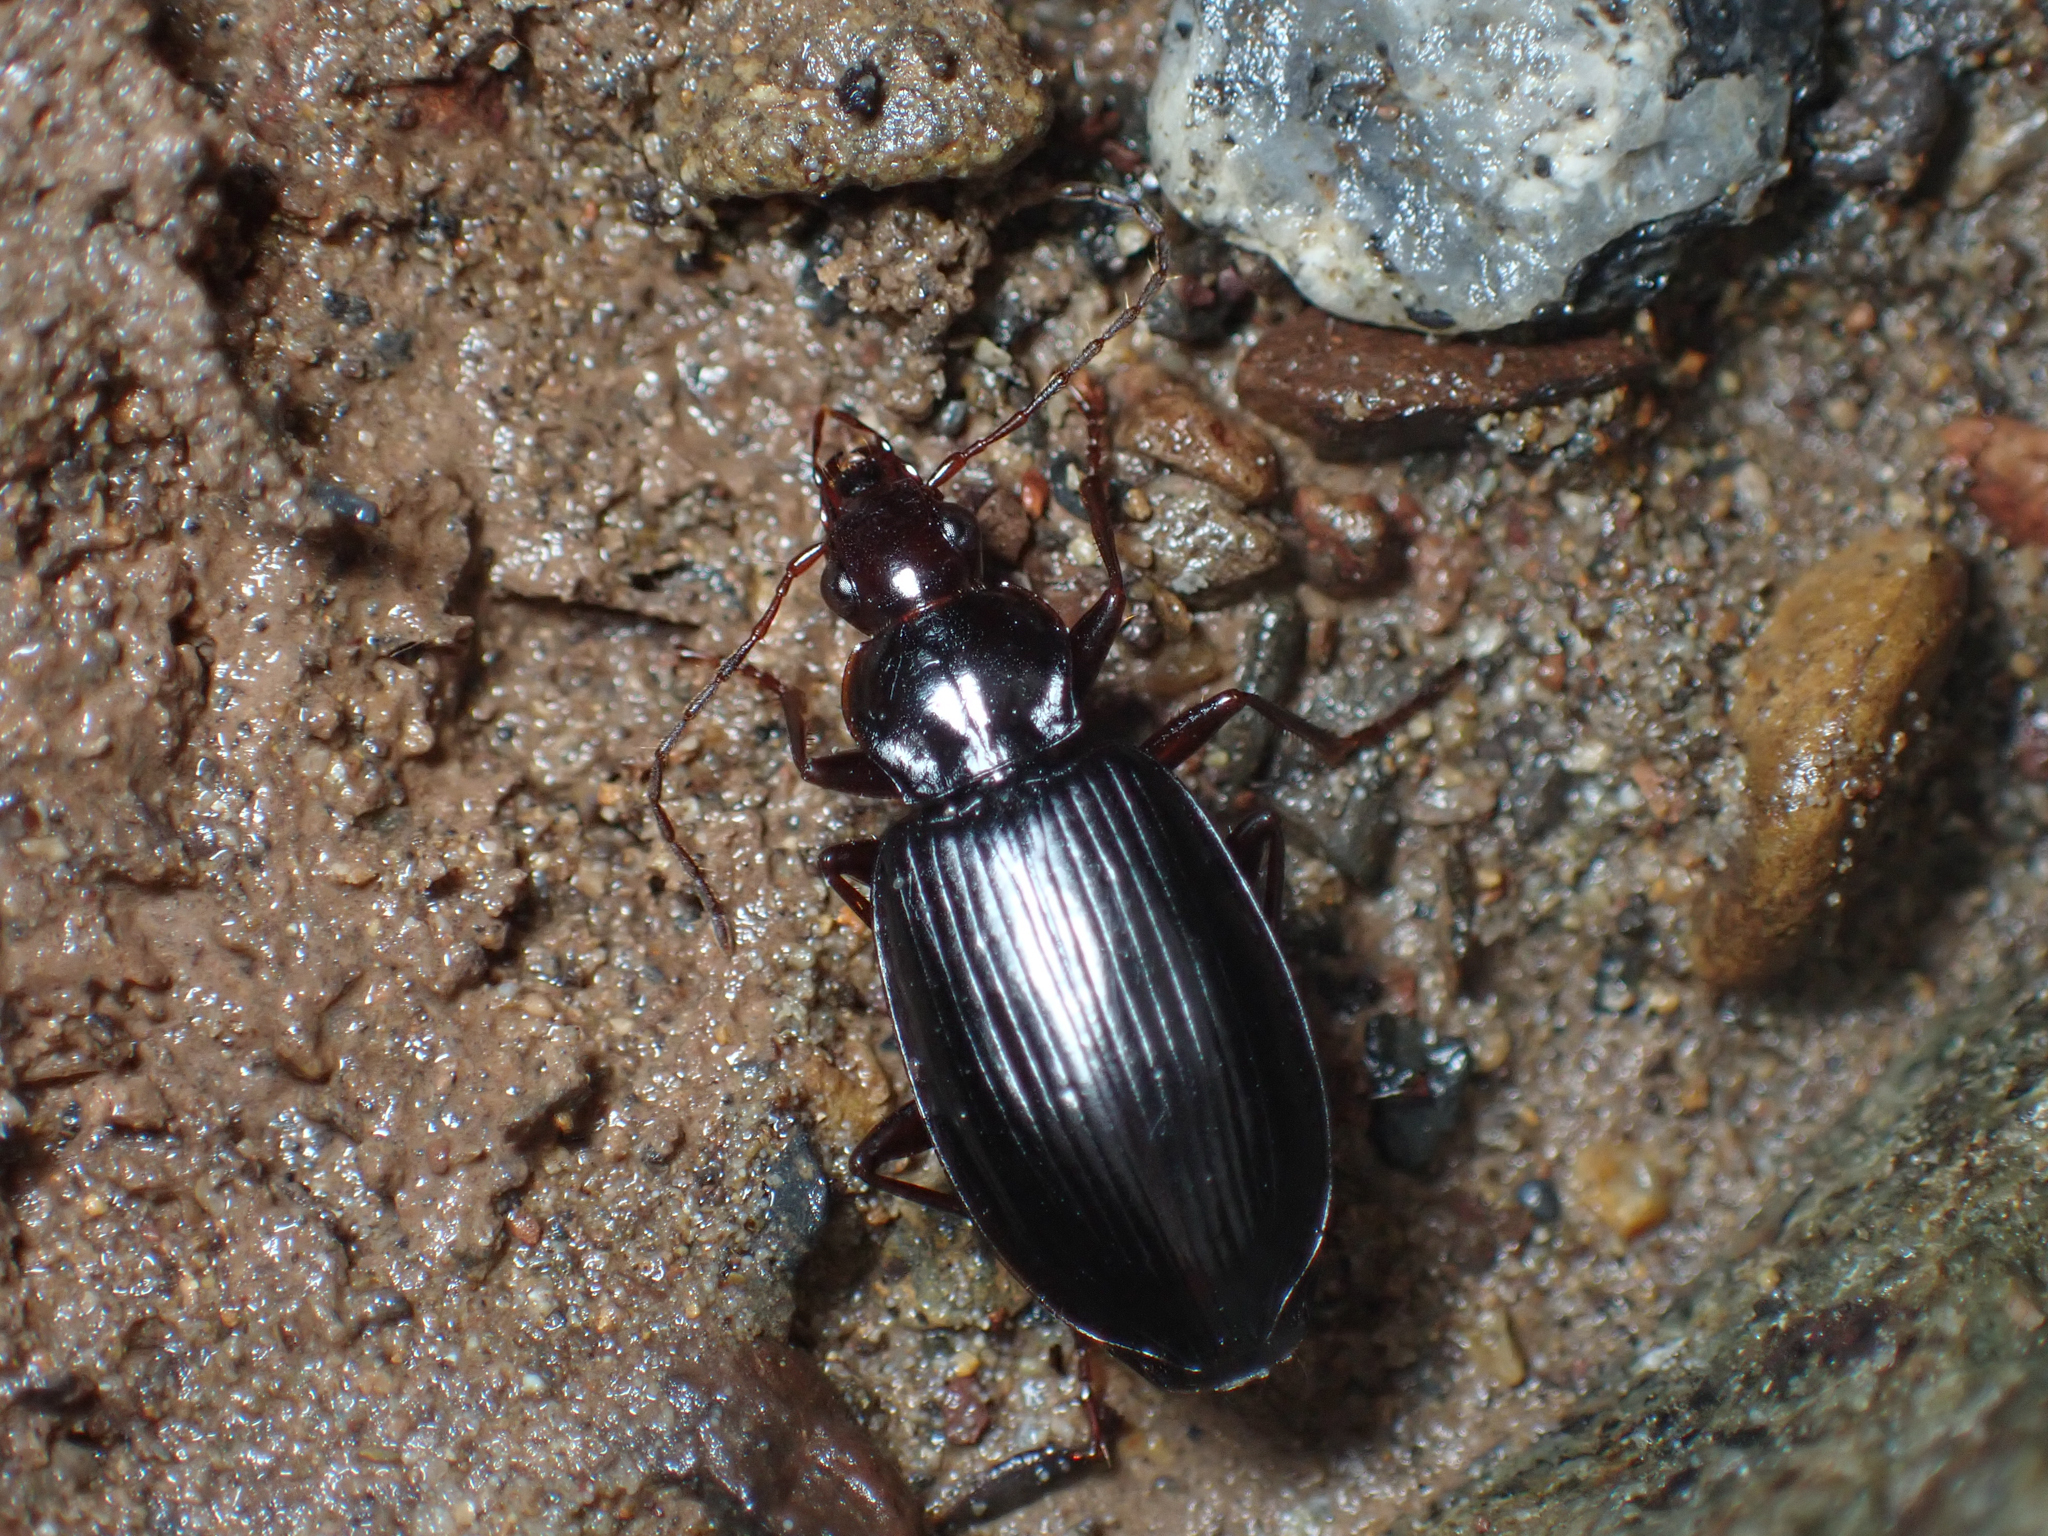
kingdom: Animalia
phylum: Arthropoda
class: Insecta
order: Coleoptera
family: Carabidae
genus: Platynus
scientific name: Platynus brunneomarginatus
